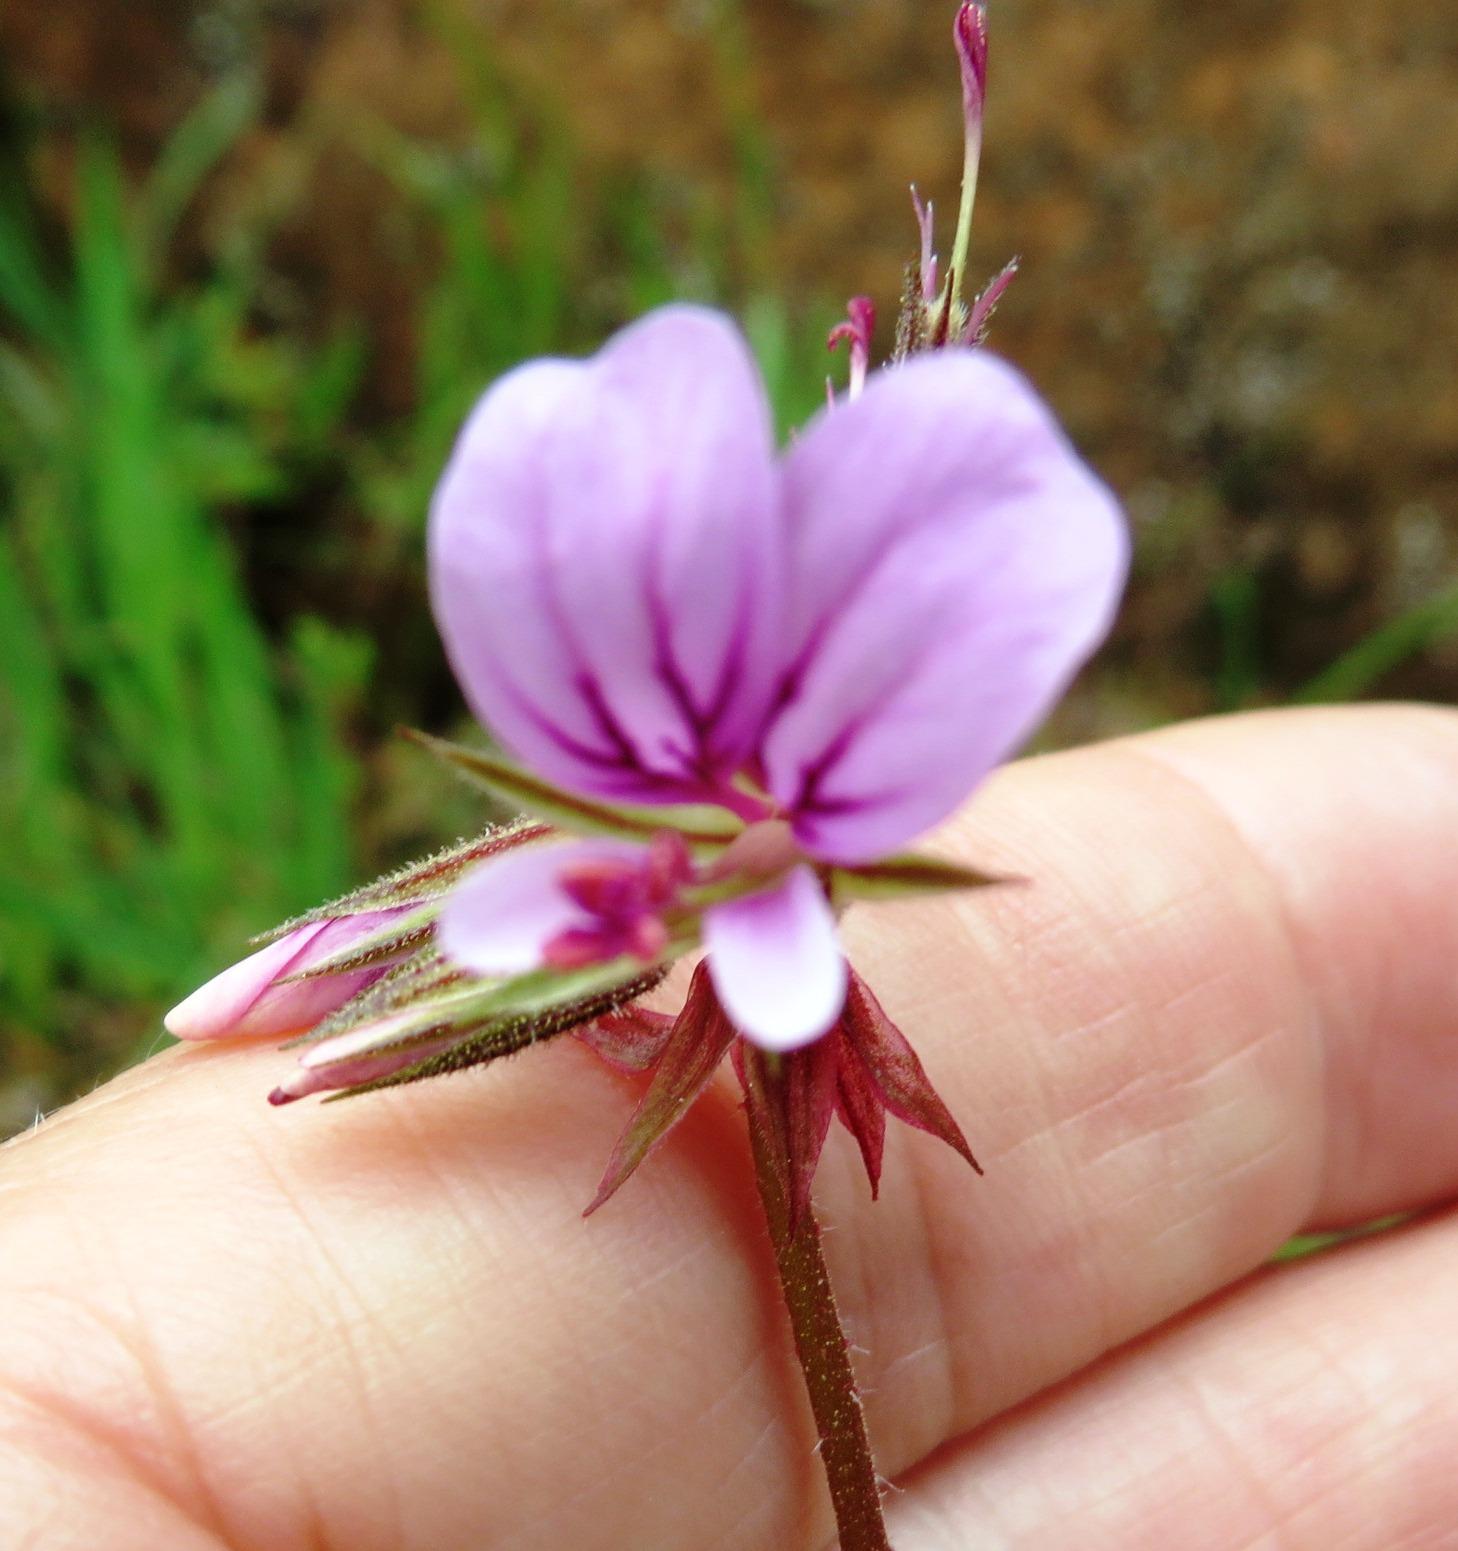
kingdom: Plantae
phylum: Tracheophyta
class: Magnoliopsida
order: Geraniales
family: Geraniaceae
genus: Pelargonium
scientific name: Pelargonium myrrhifolium
